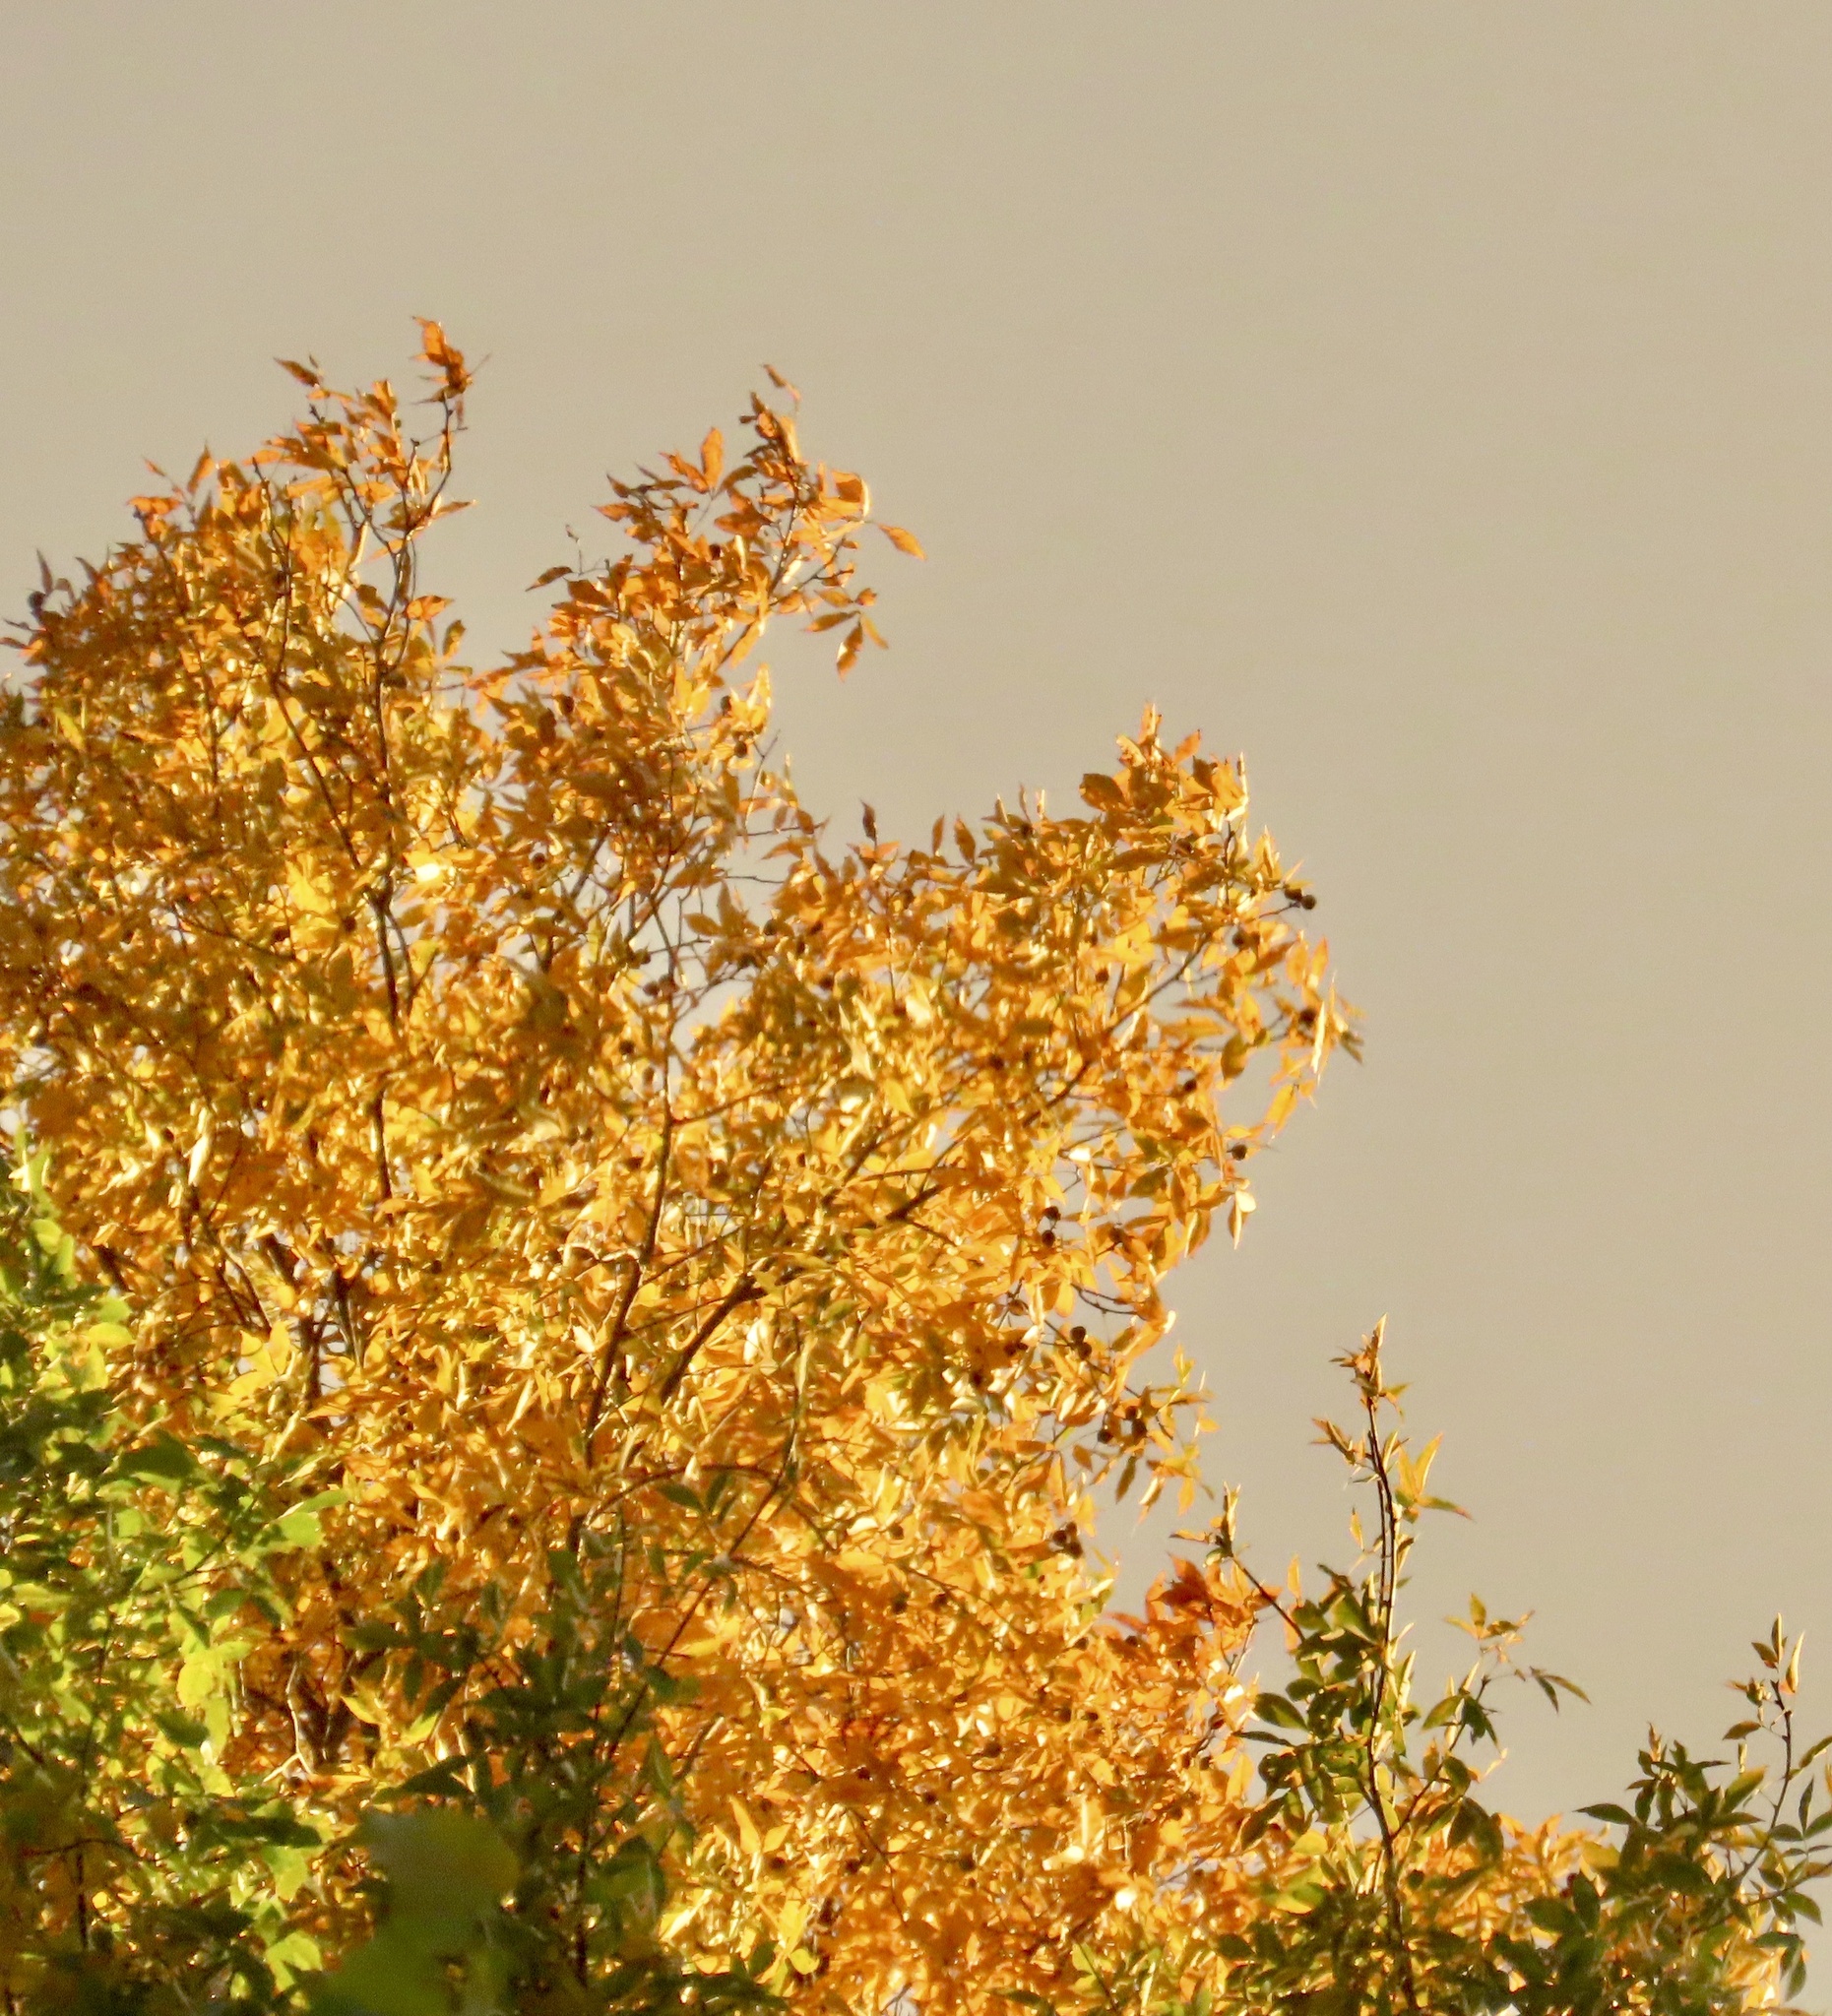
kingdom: Plantae
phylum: Tracheophyta
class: Magnoliopsida
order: Fagales
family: Juglandaceae
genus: Carya
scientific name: Carya cordiformis
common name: Bitternut hickory
